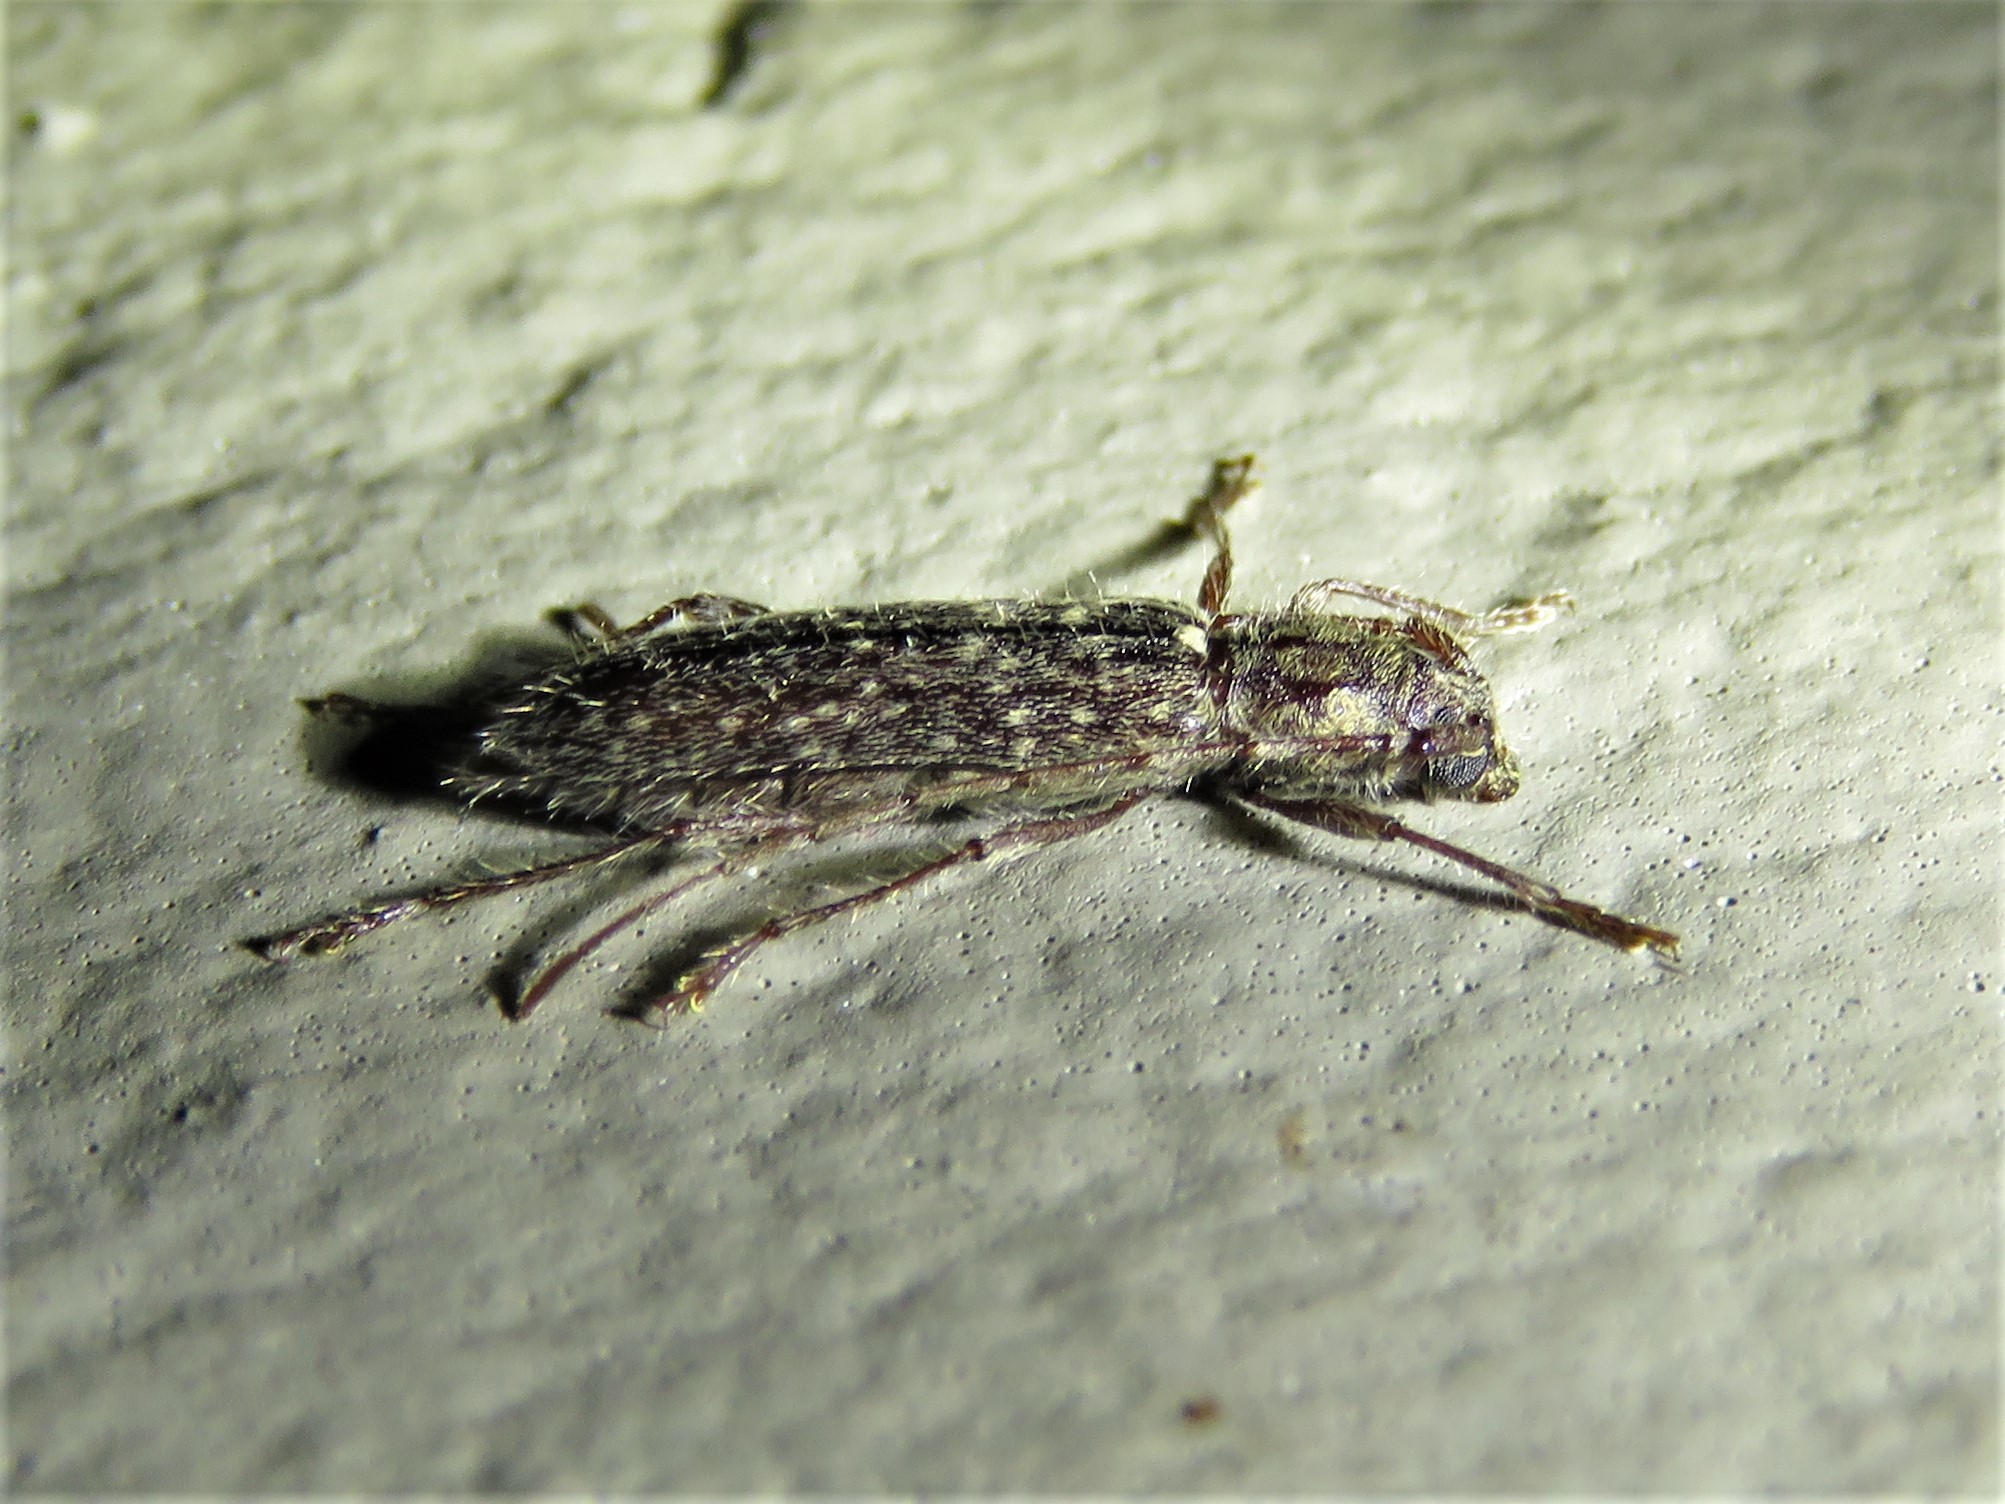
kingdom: Animalia
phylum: Arthropoda
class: Insecta
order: Coleoptera
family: Cerambycidae
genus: Anelaphus
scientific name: Anelaphus pumilus
